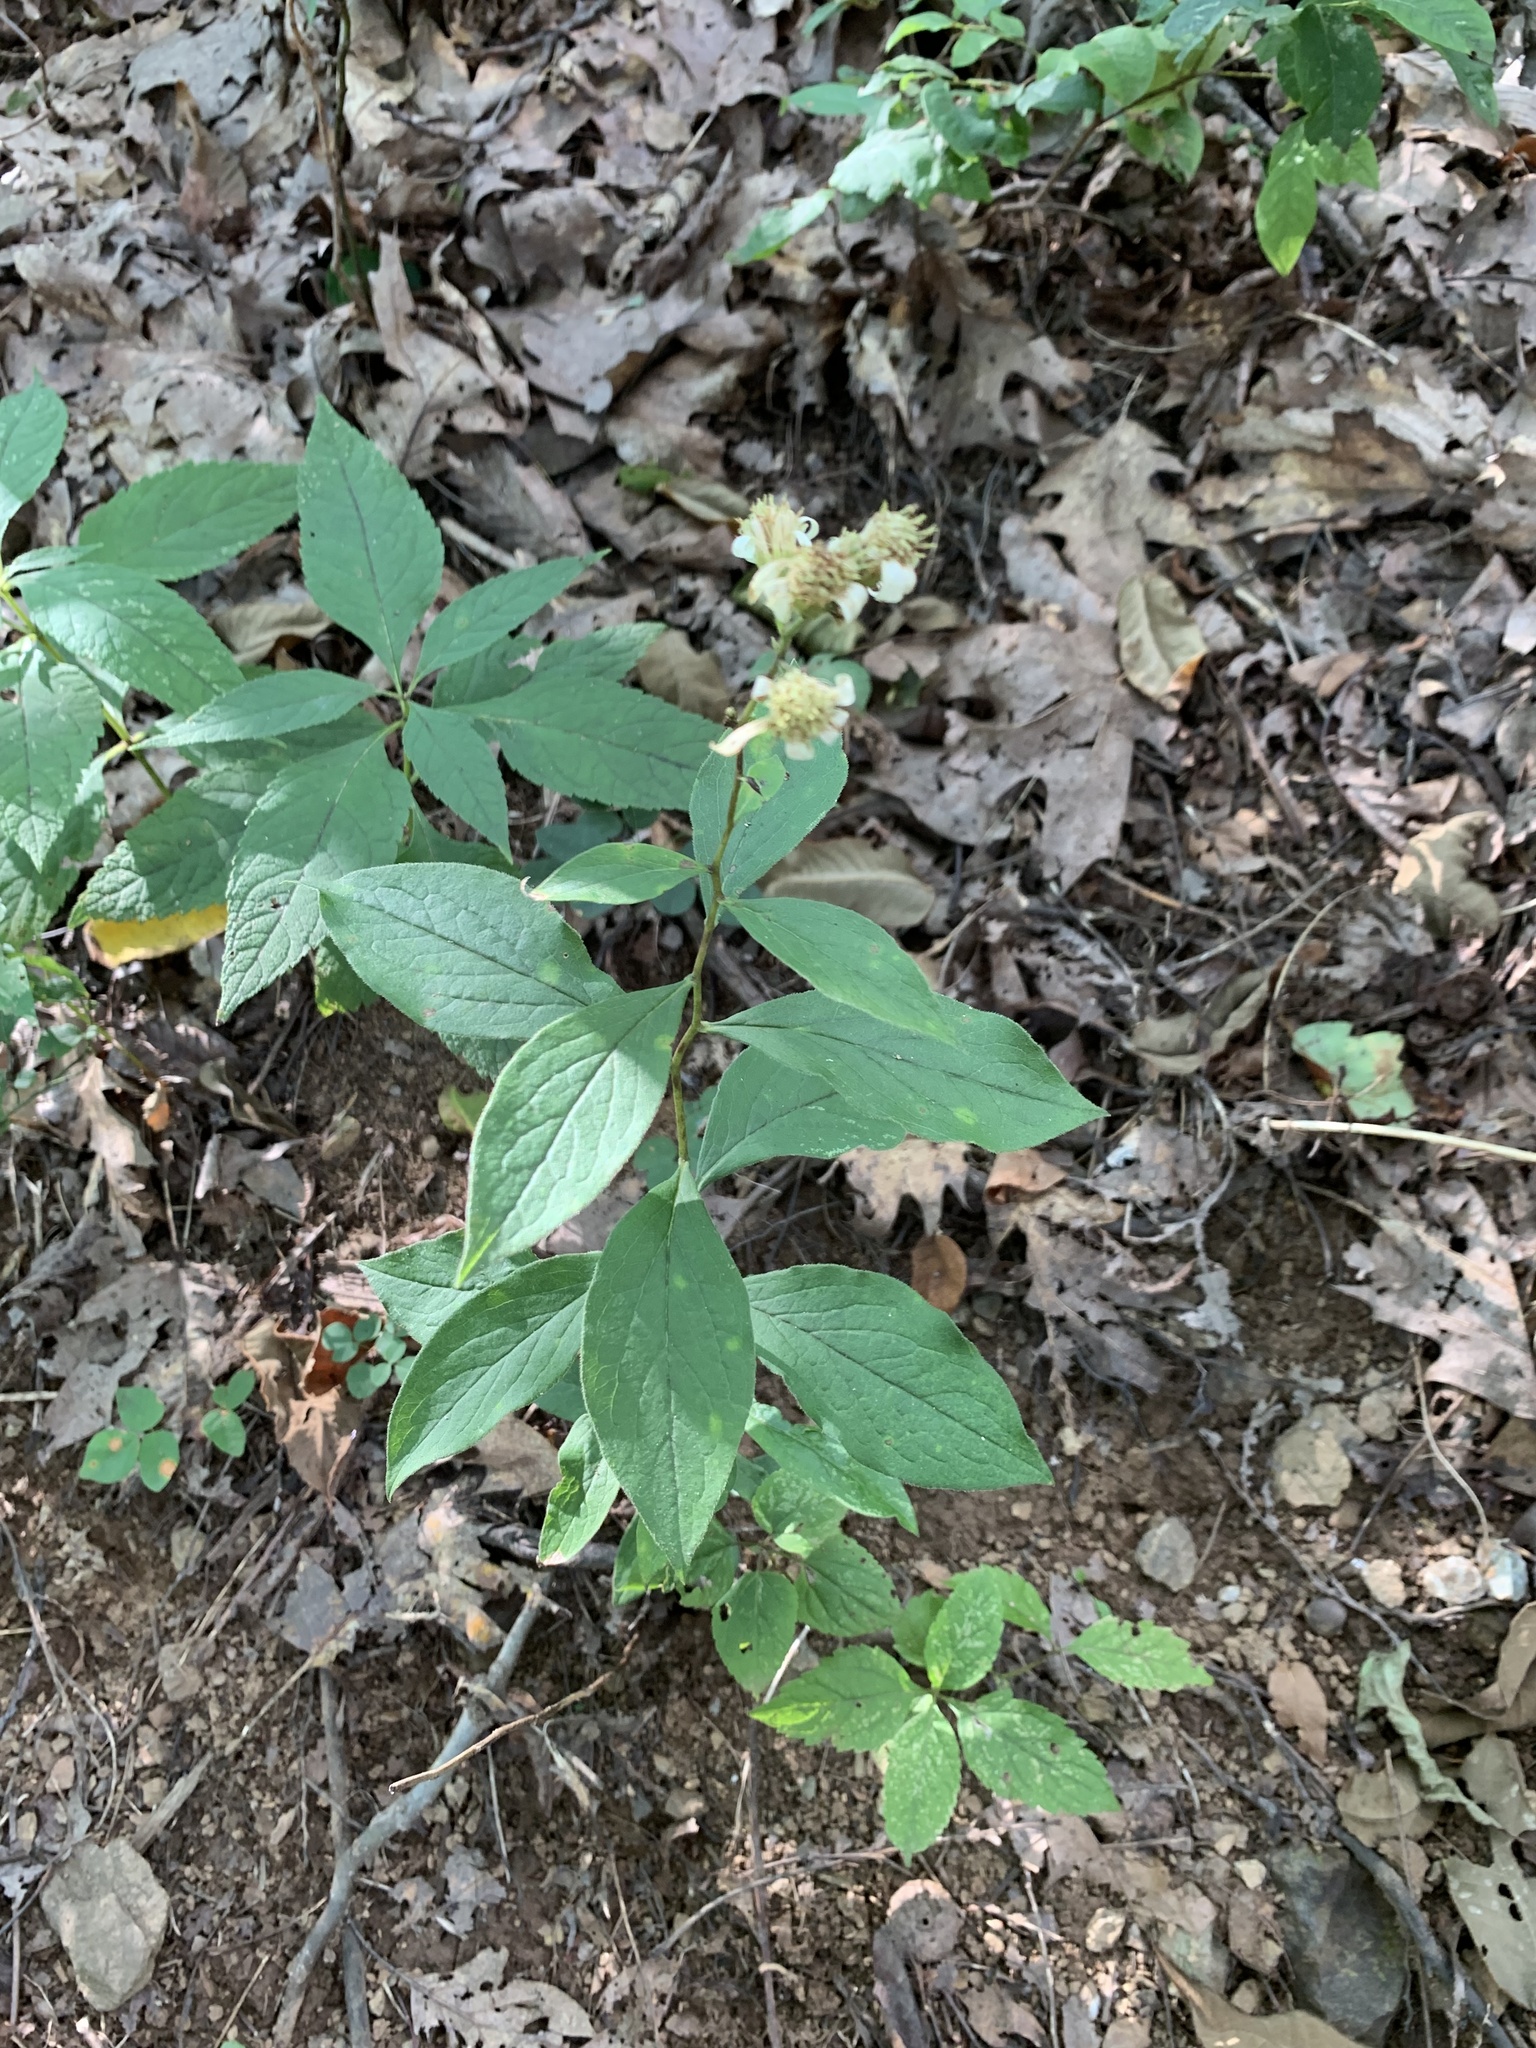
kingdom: Plantae
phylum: Tracheophyta
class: Magnoliopsida
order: Asterales
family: Asteraceae
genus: Doellingeria
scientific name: Doellingeria infirma
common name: Appalachian flat-top aster
